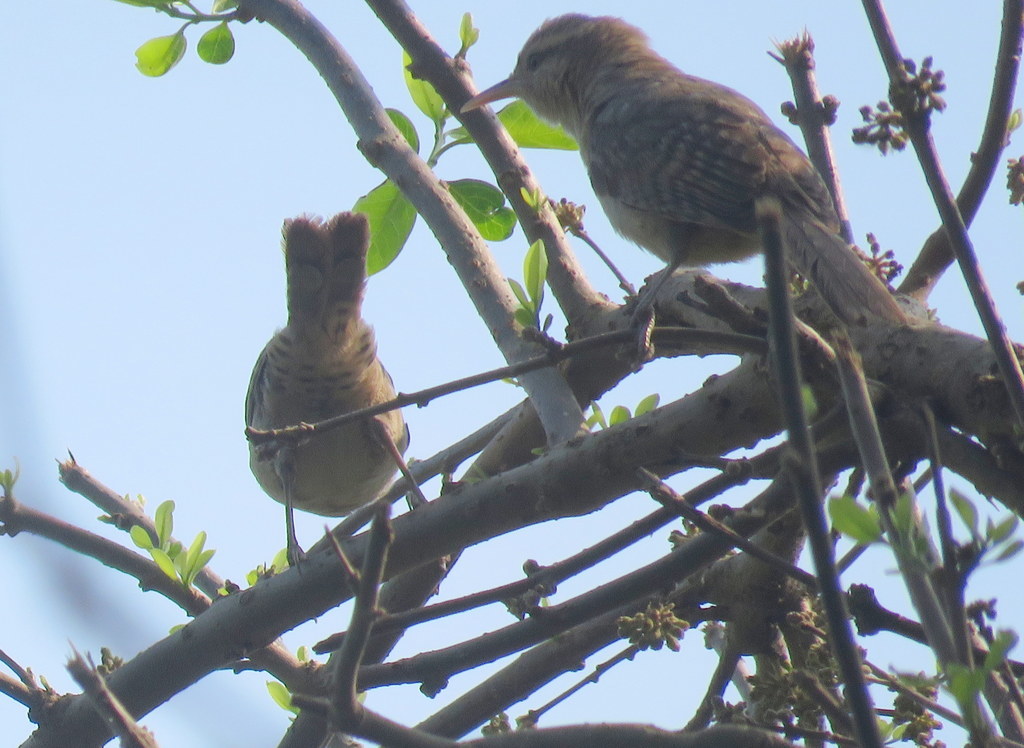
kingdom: Animalia
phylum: Chordata
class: Aves
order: Passeriformes
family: Troglodytidae
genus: Campylorhynchus
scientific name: Campylorhynchus turdinus
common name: Thrush-like wren
